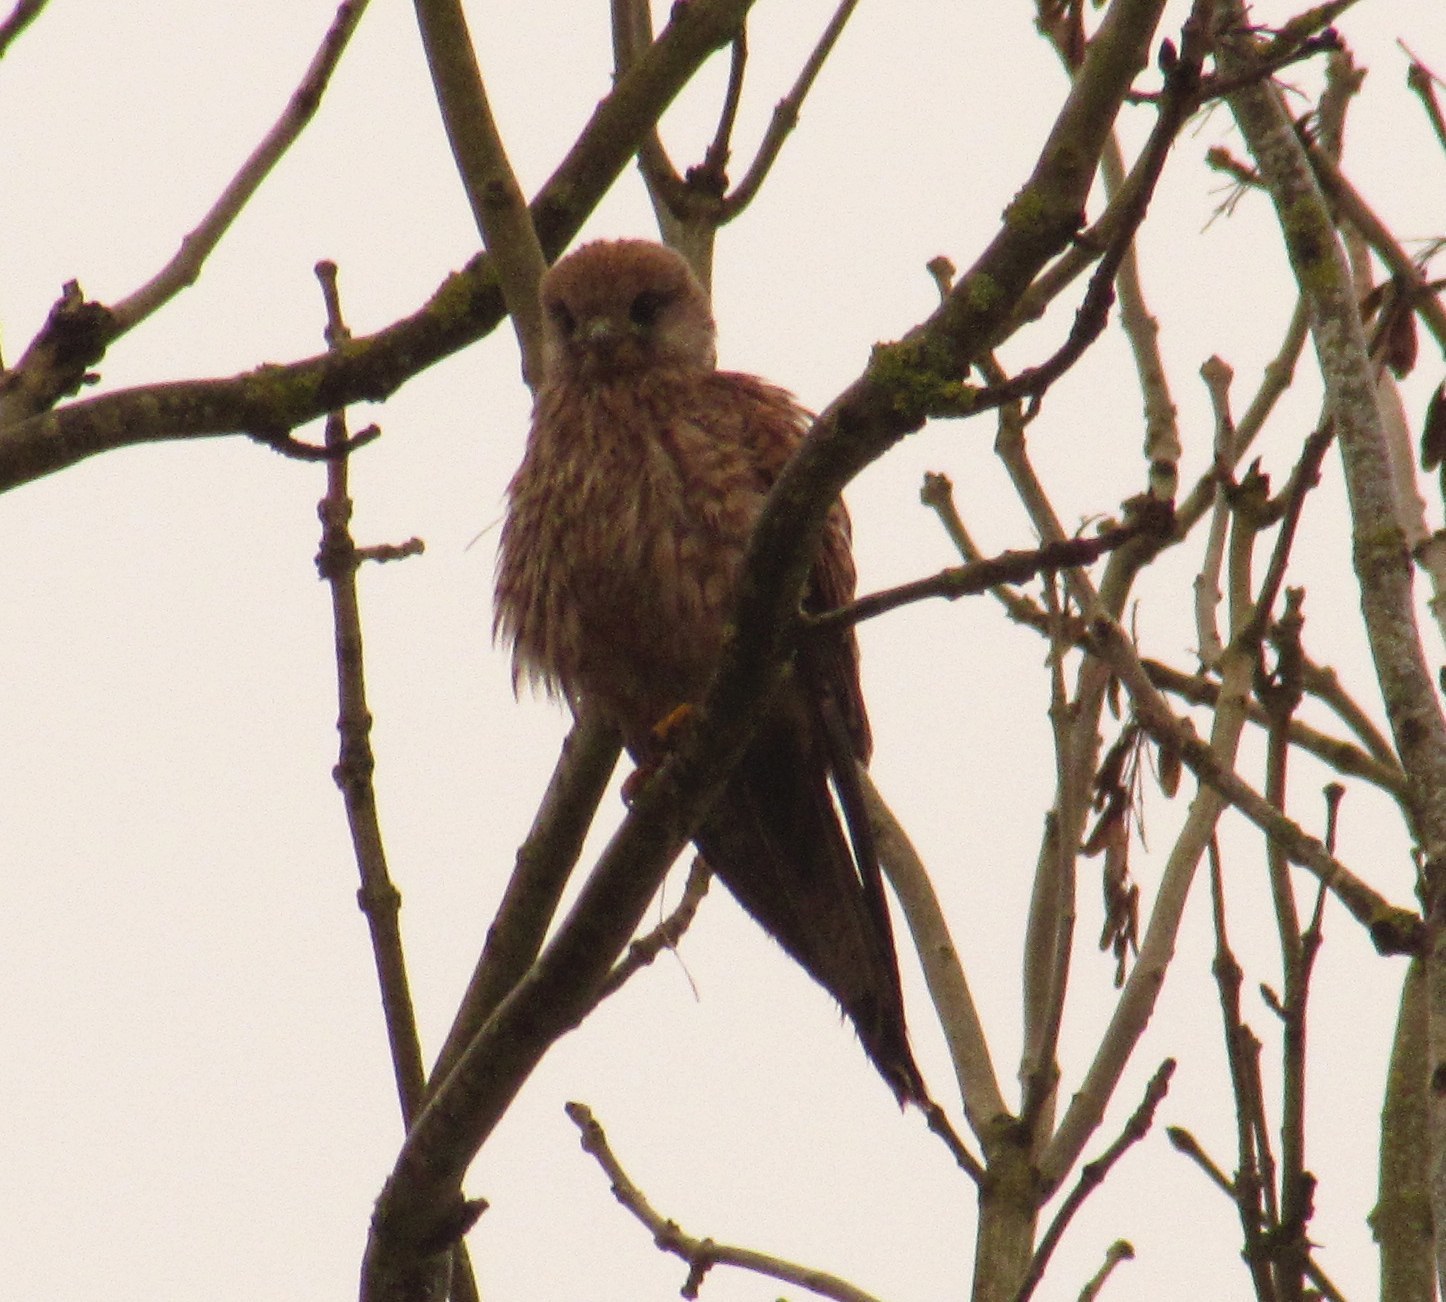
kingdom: Animalia
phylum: Chordata
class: Aves
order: Falconiformes
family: Falconidae
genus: Falco
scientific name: Falco tinnunculus
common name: Common kestrel
